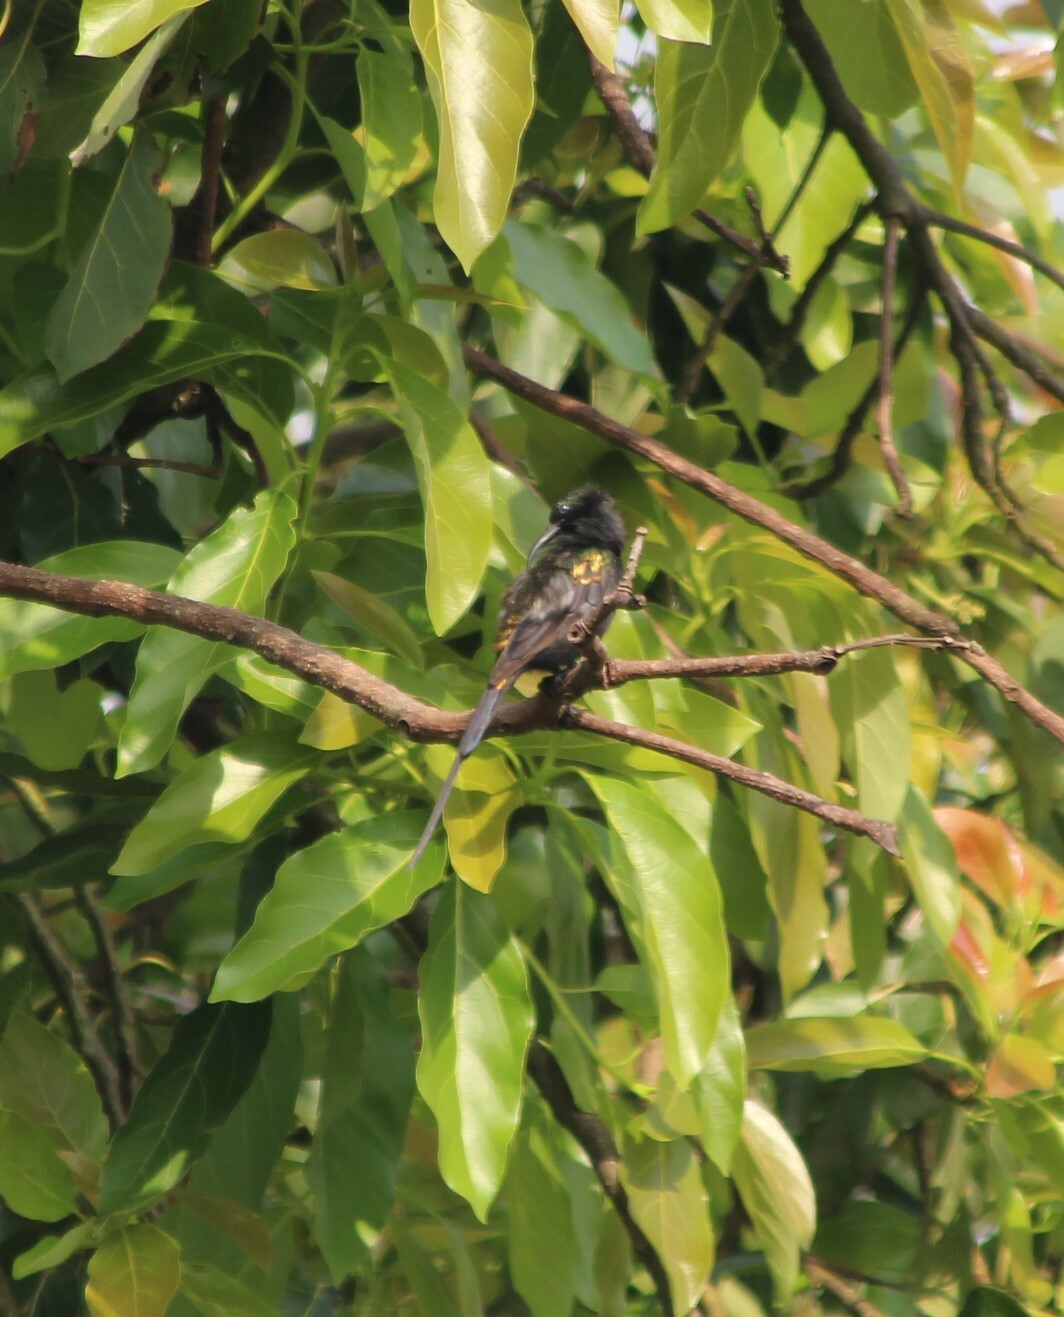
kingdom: Animalia
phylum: Chordata
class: Aves
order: Passeriformes
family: Nectariniidae
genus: Nectarinia
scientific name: Nectarinia kilimensis
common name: Bronzy sunbird
